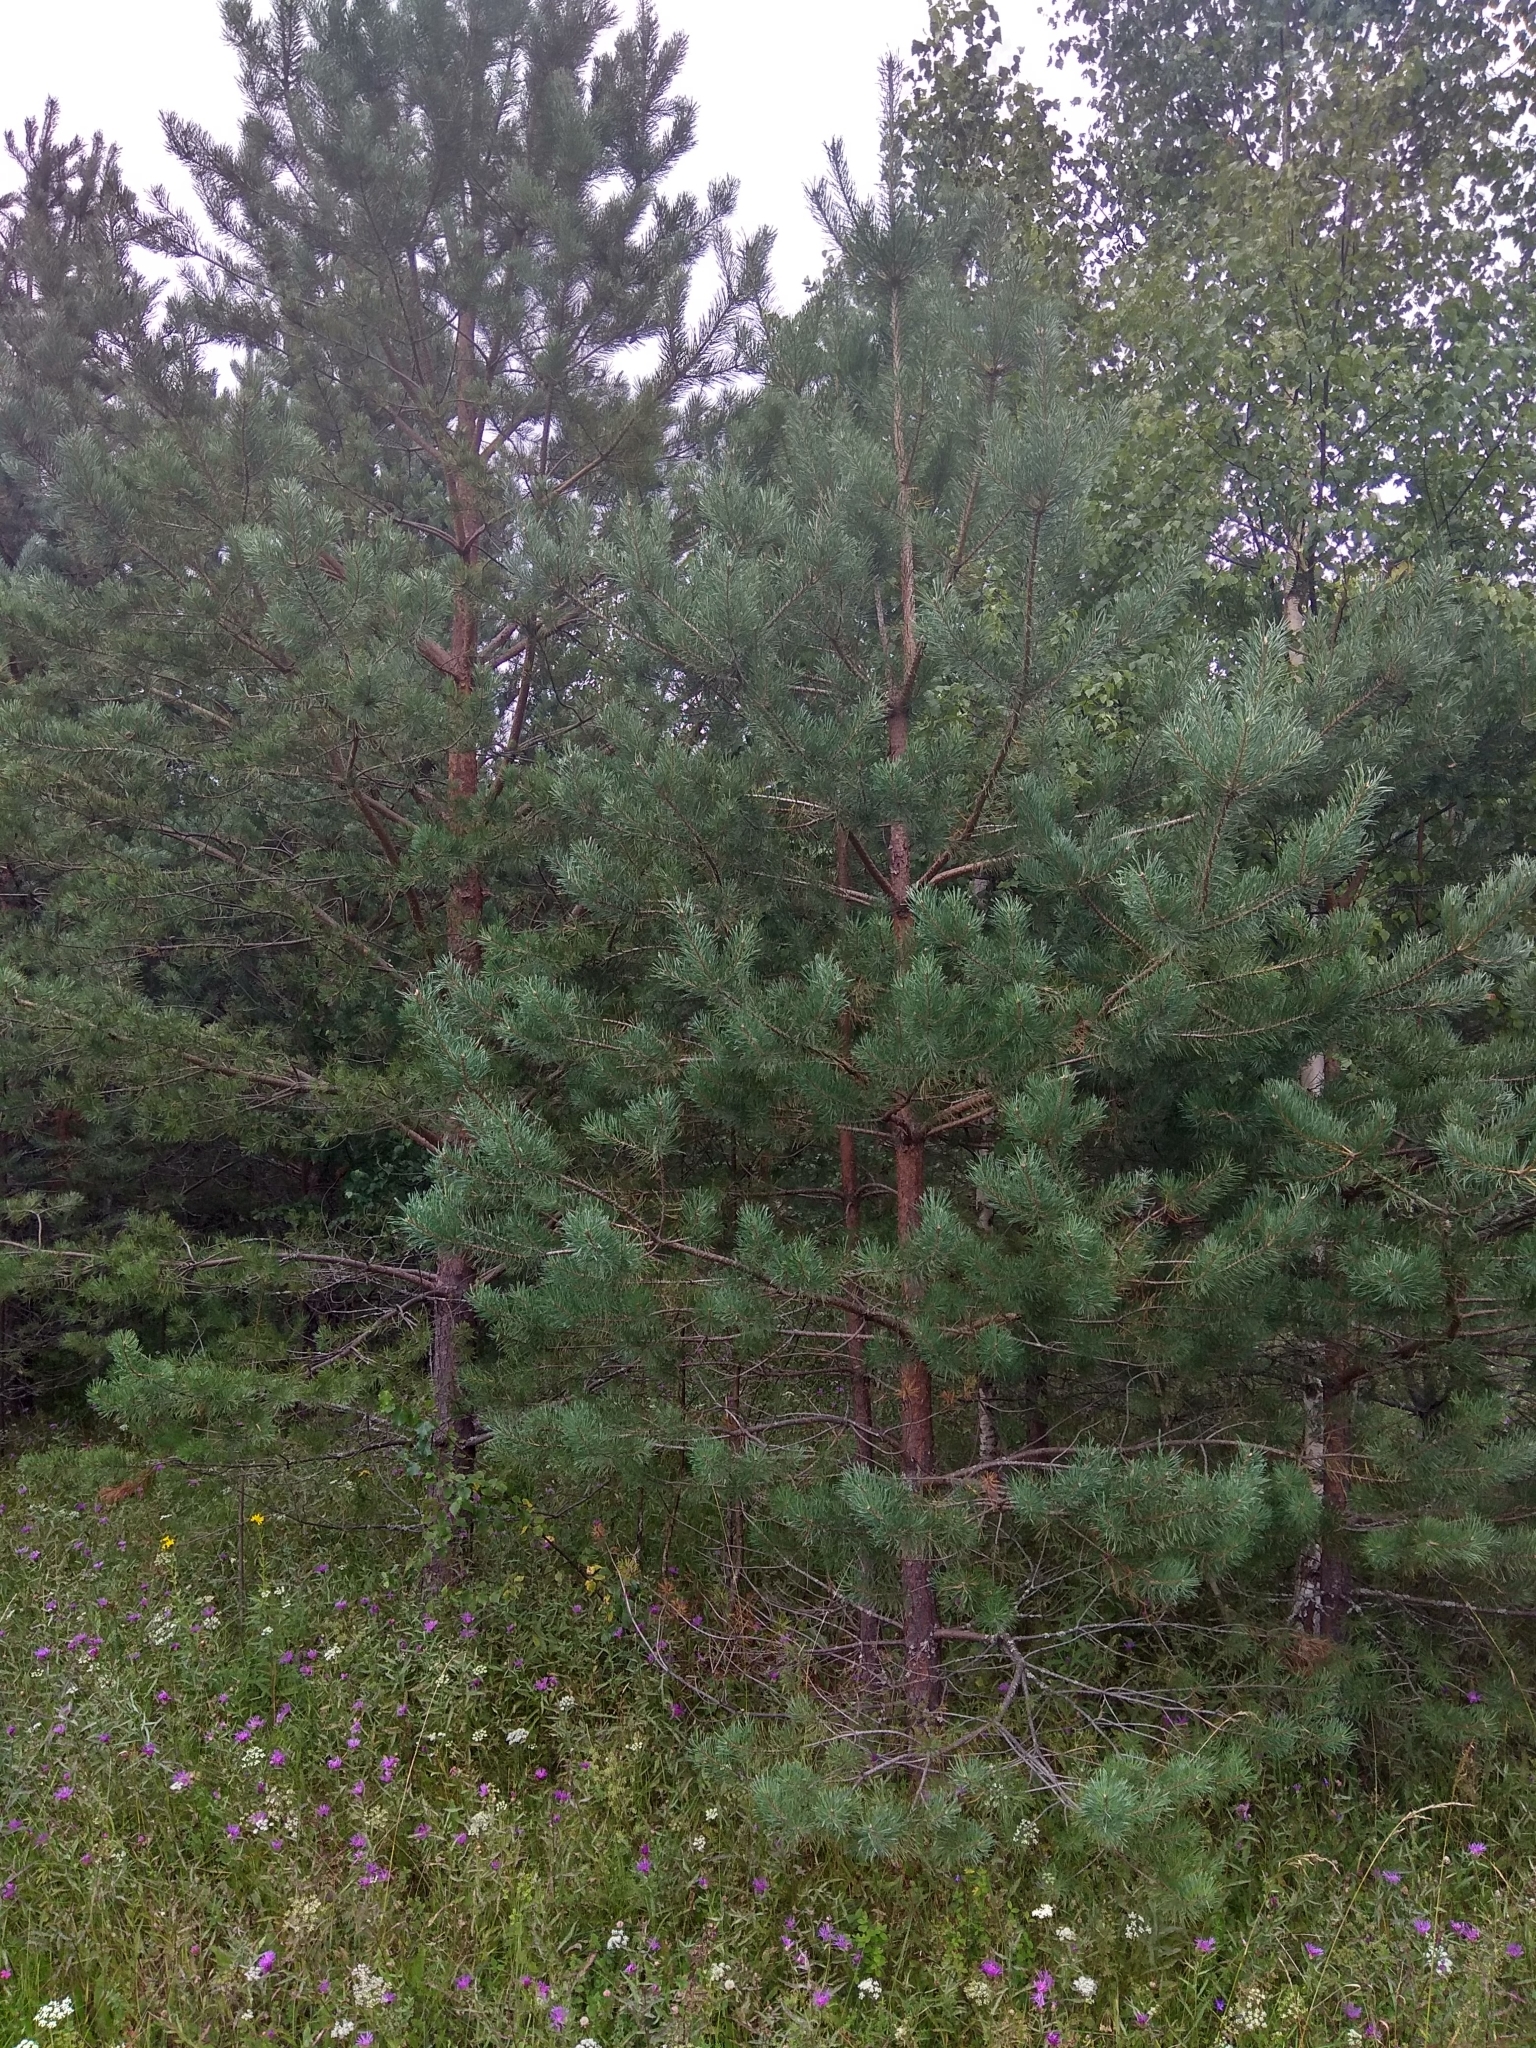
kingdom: Plantae
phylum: Tracheophyta
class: Pinopsida
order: Pinales
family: Pinaceae
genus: Pinus
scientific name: Pinus sylvestris
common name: Scots pine
